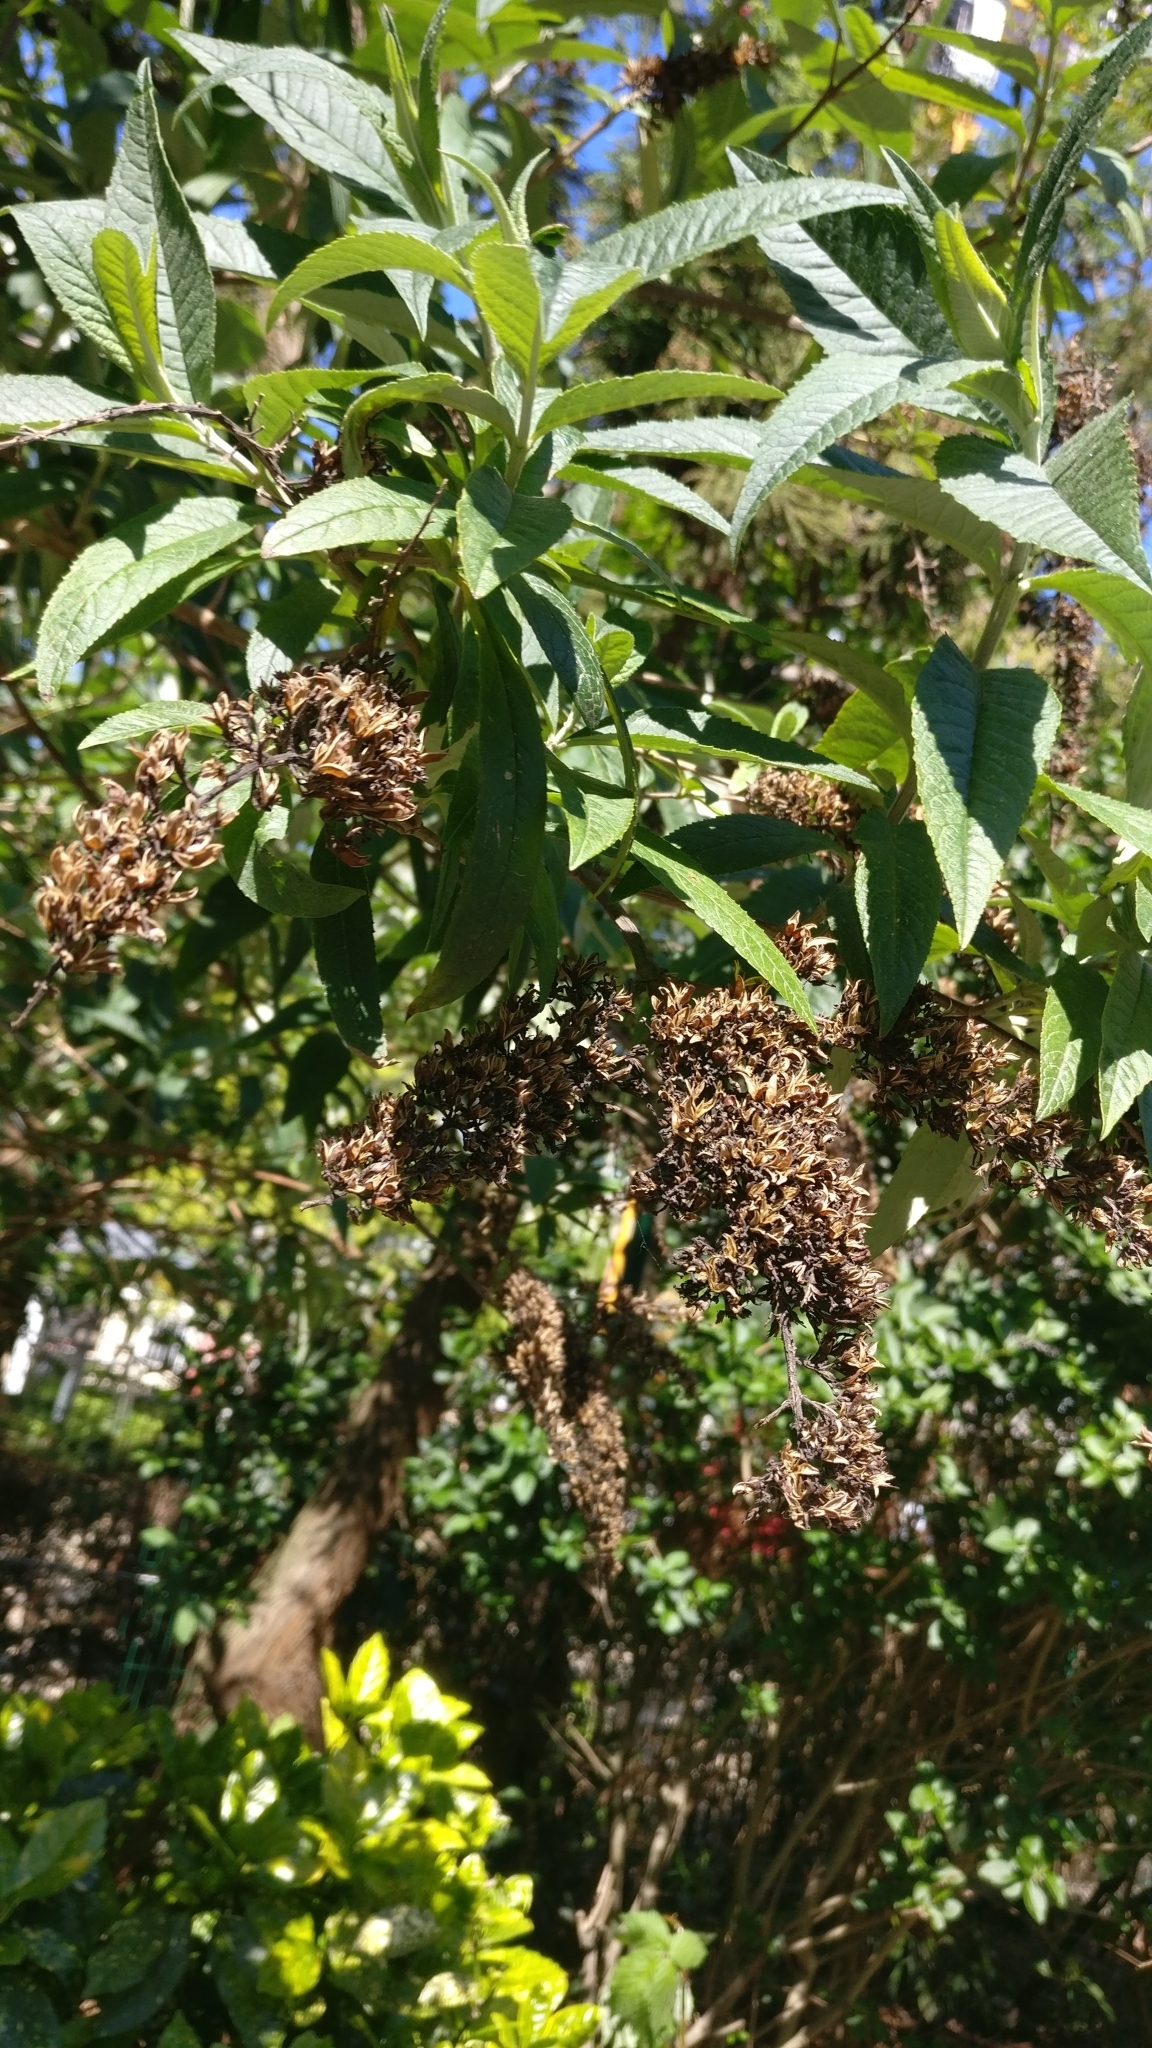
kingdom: Plantae
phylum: Tracheophyta
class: Magnoliopsida
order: Lamiales
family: Scrophulariaceae
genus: Buddleja
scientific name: Buddleja davidii
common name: Butterfly-bush
